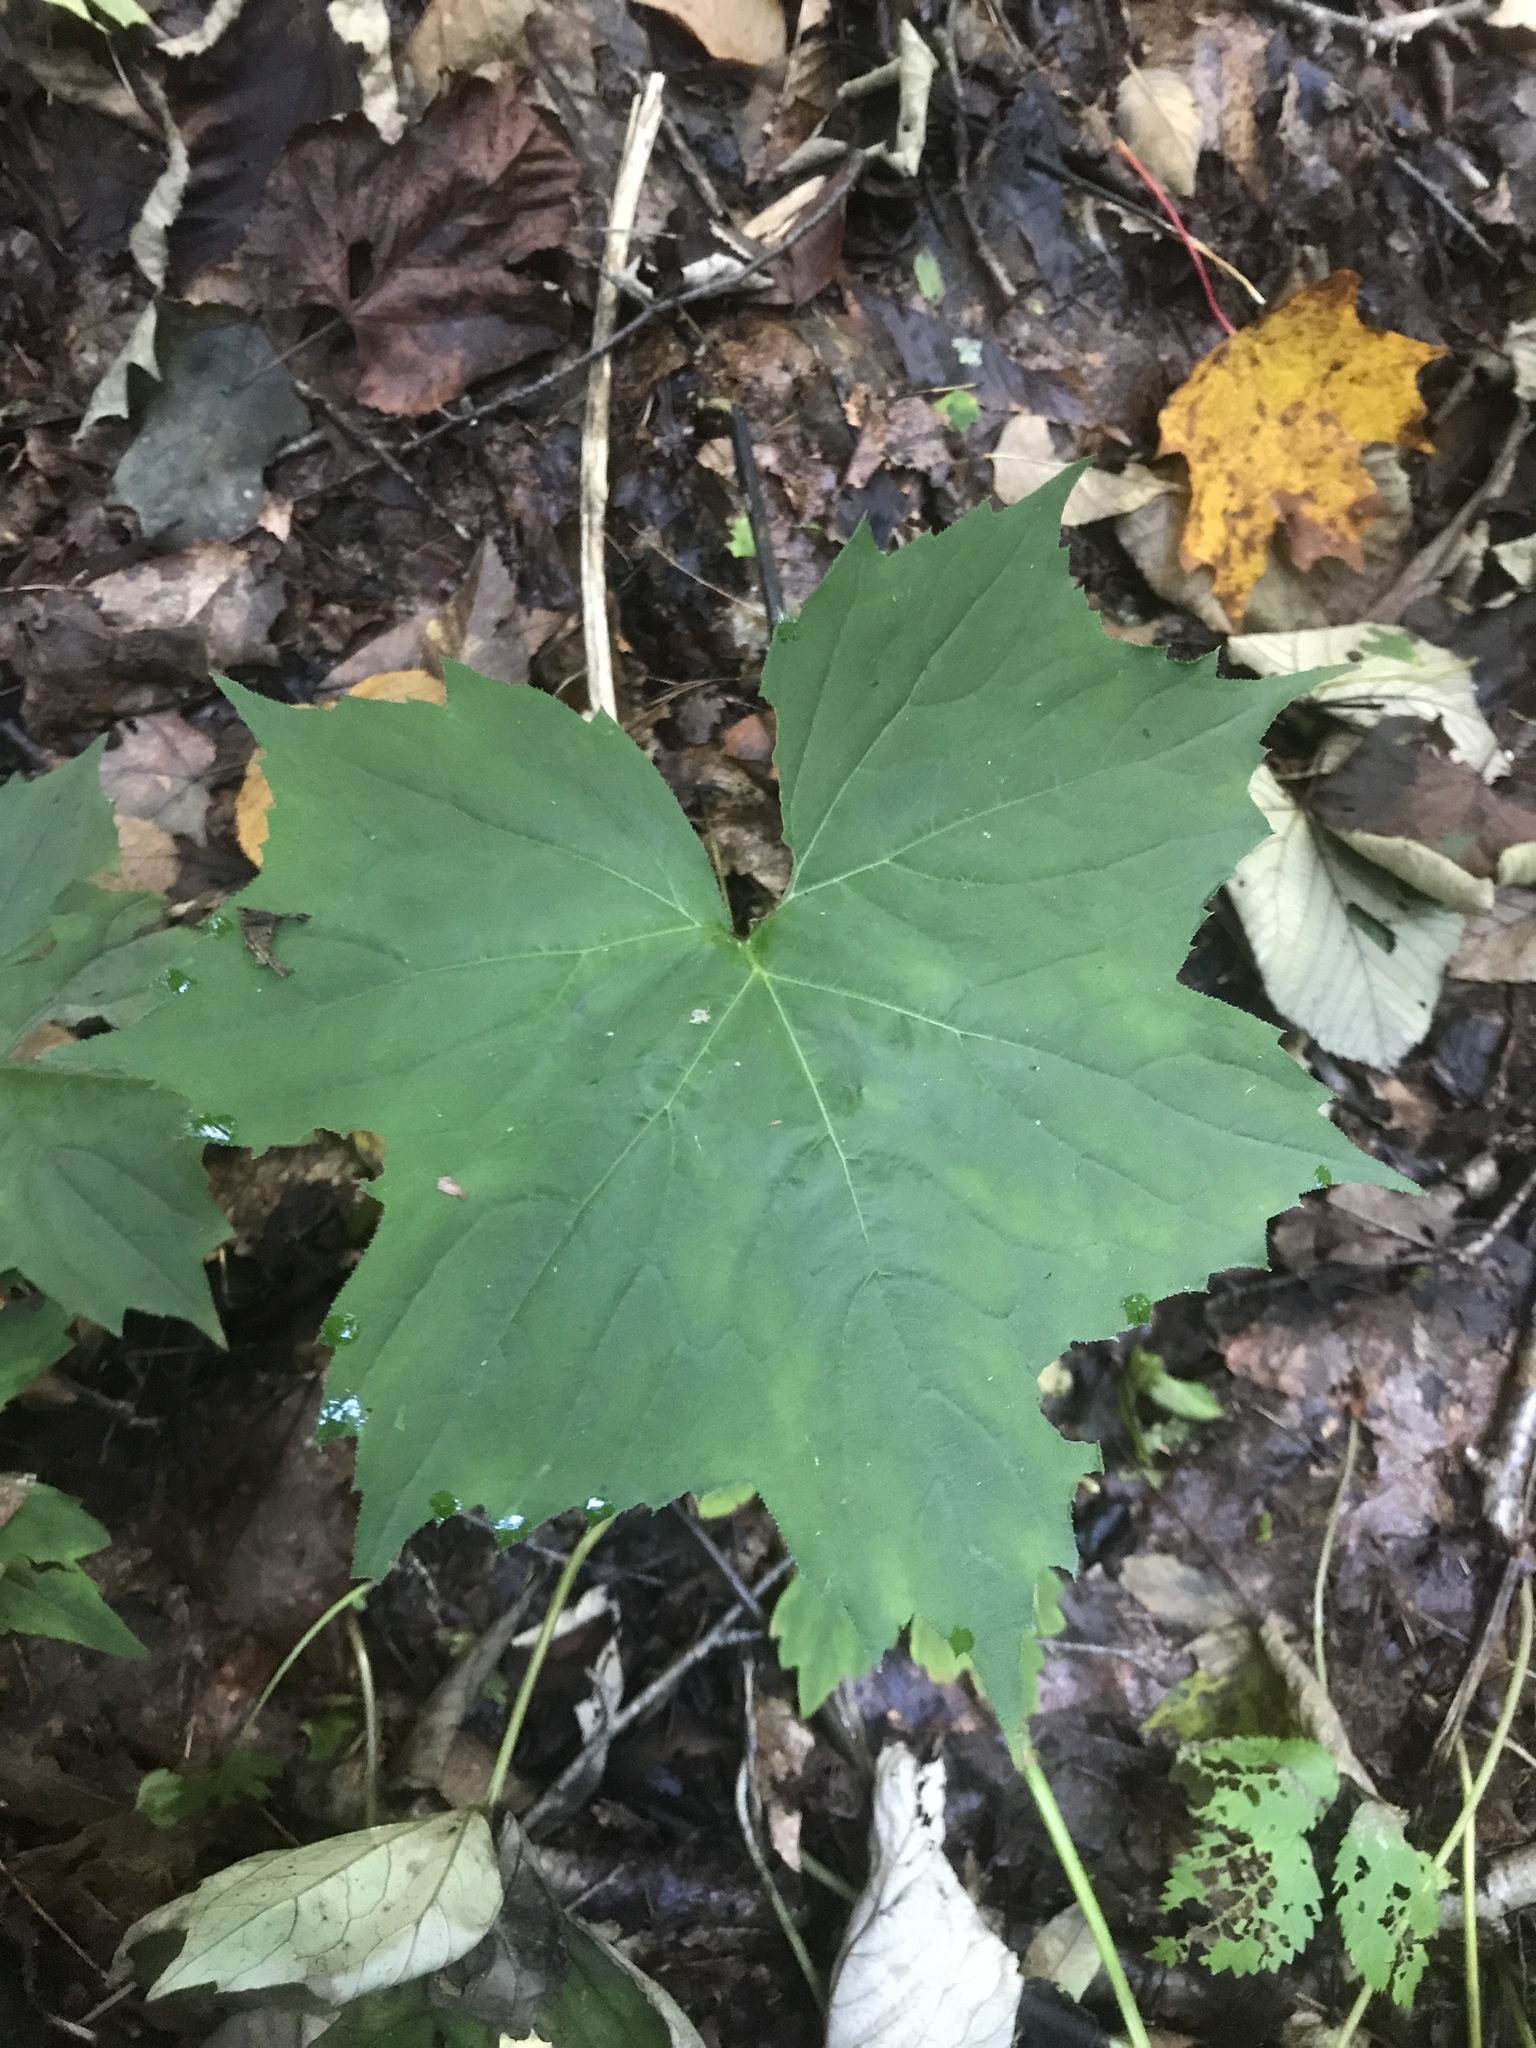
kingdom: Plantae
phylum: Tracheophyta
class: Magnoliopsida
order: Boraginales
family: Hydrophyllaceae
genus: Hydrophyllum
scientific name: Hydrophyllum canadense
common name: Canada waterleaf
